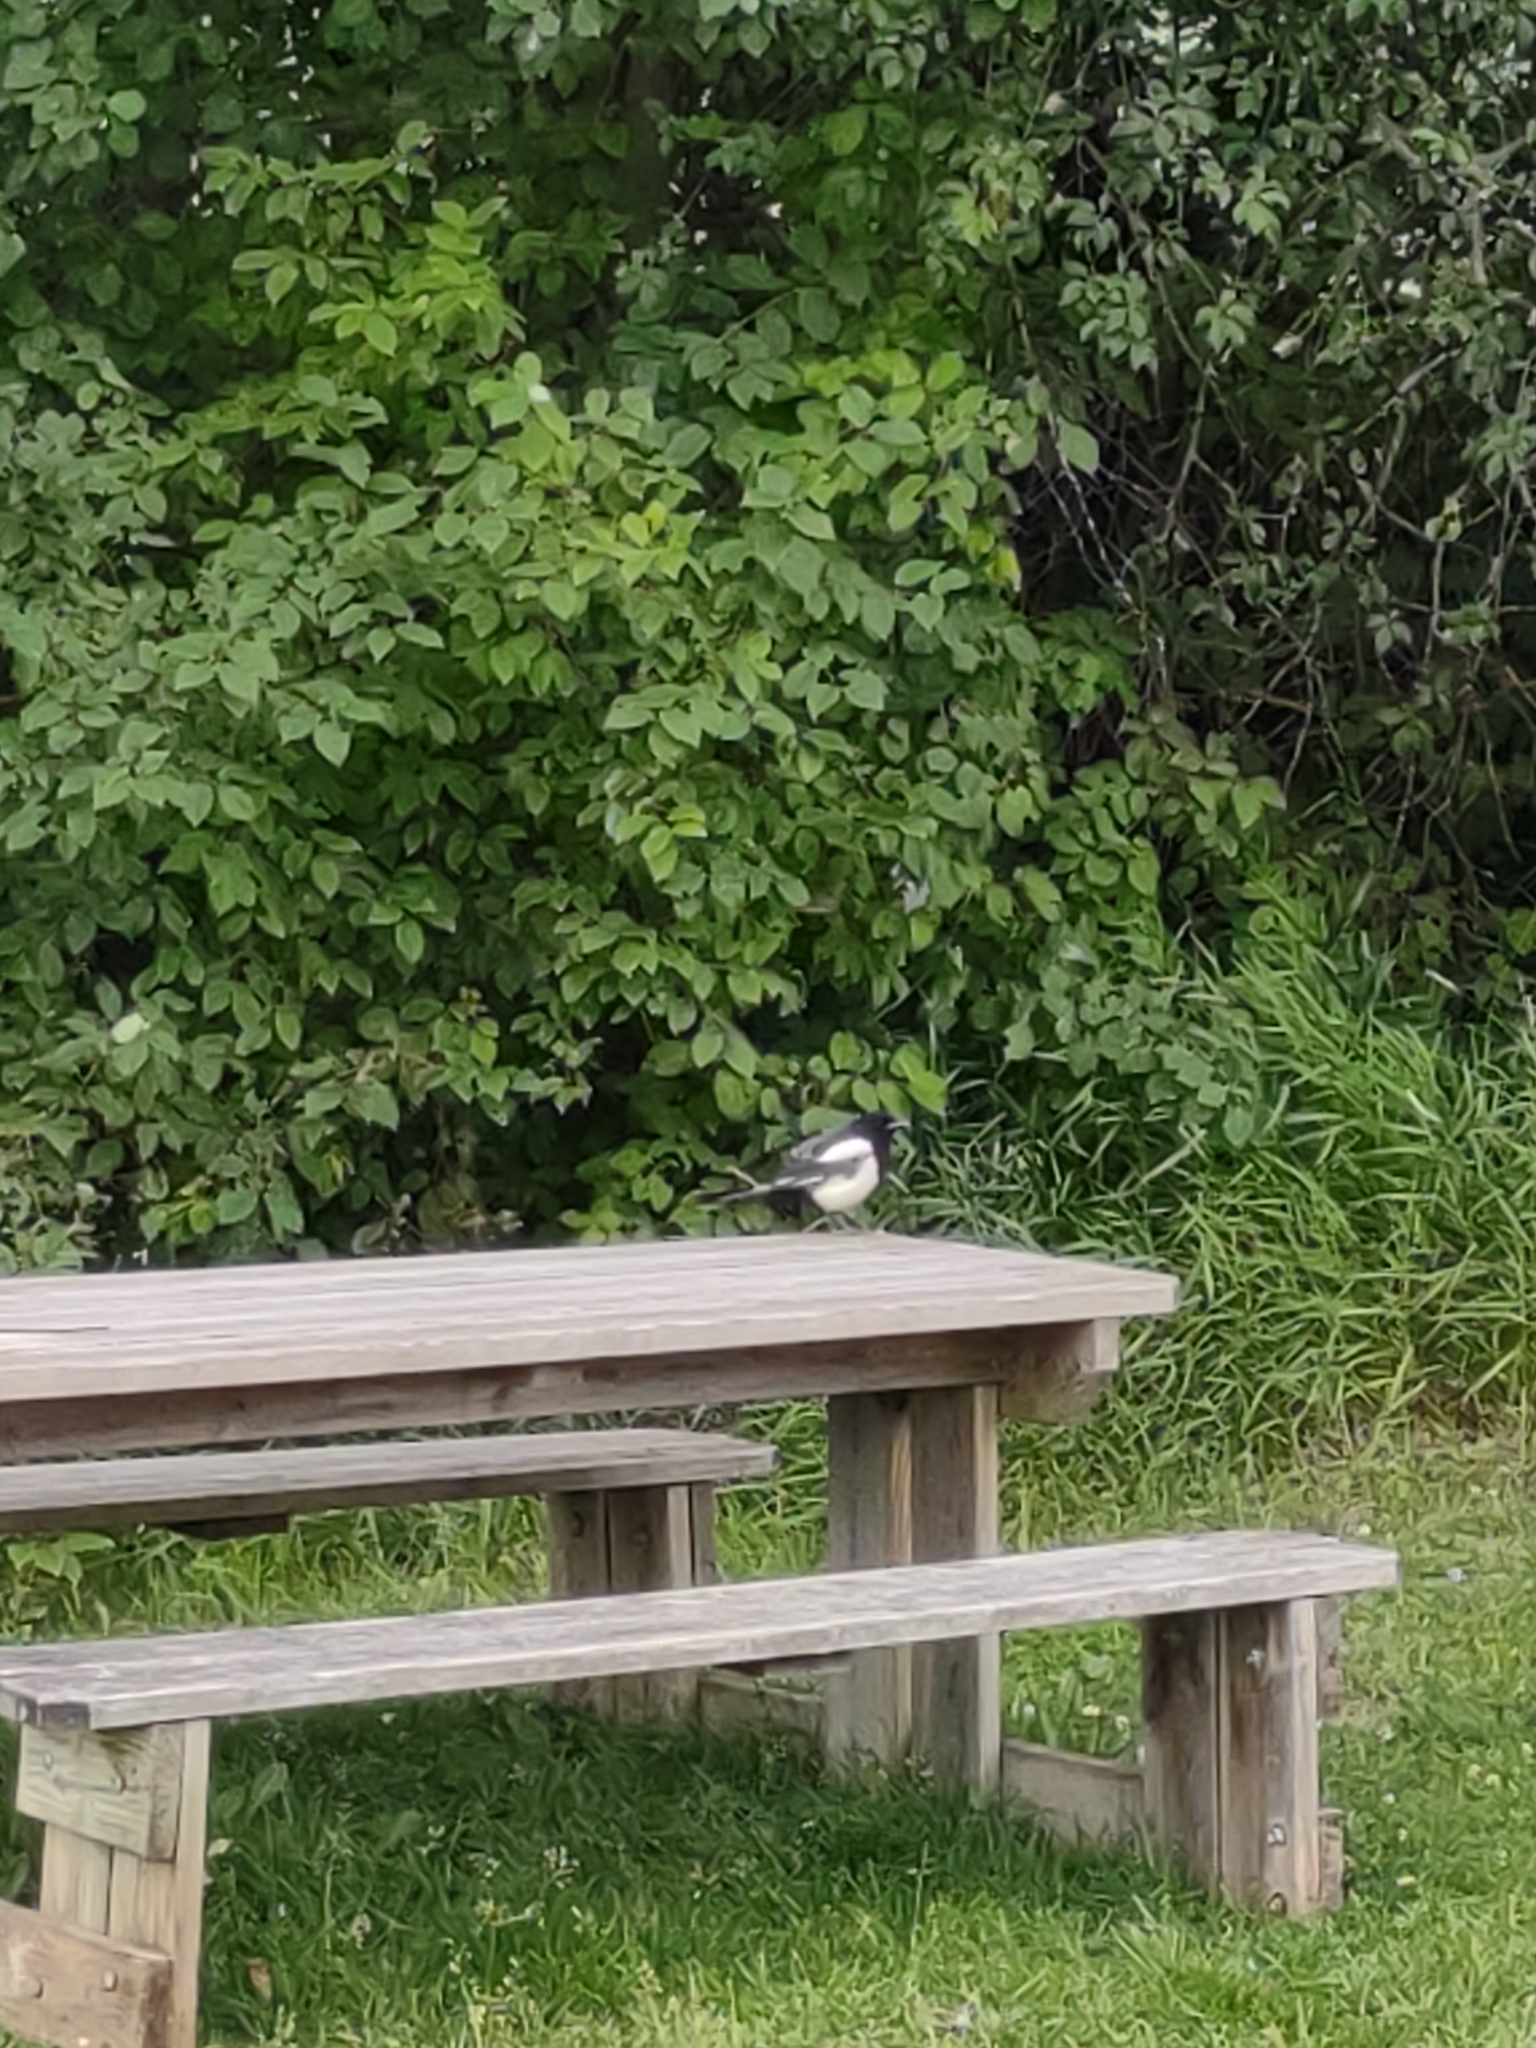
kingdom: Animalia
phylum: Chordata
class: Aves
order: Passeriformes
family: Corvidae
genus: Pica
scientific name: Pica pica
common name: Eurasian magpie
